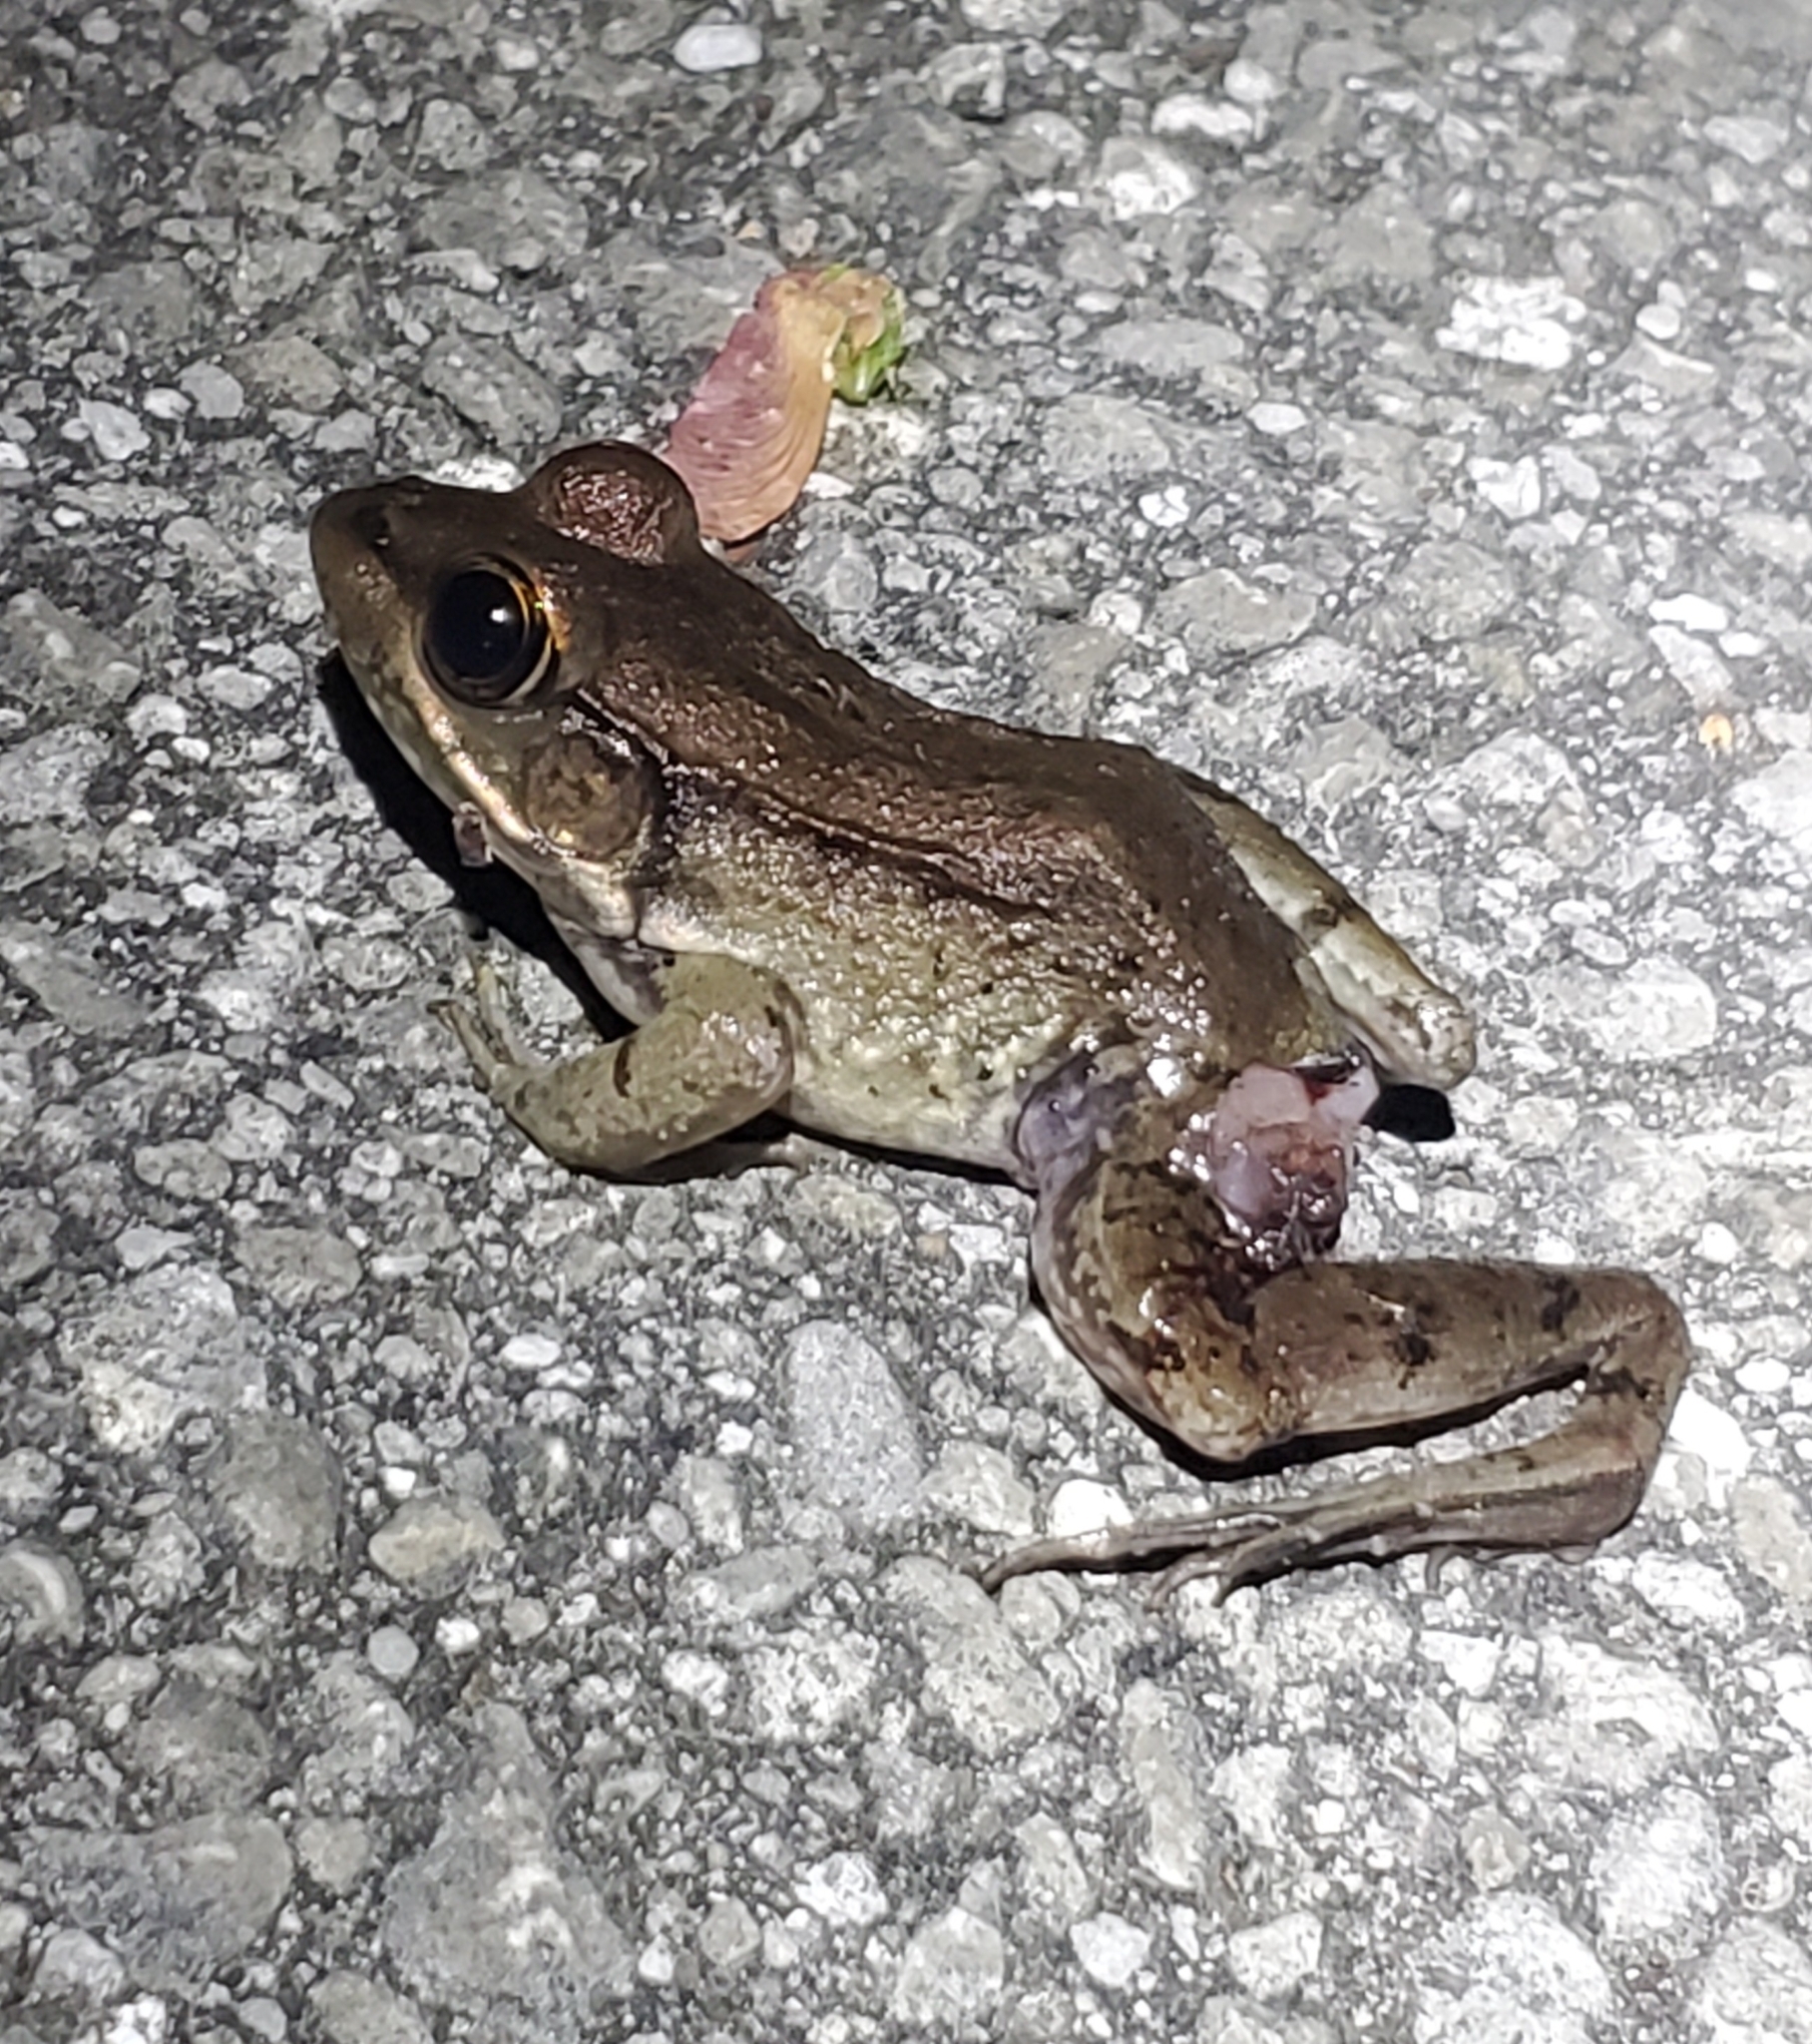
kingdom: Animalia
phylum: Chordata
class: Amphibia
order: Anura
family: Ranidae
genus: Lithobates
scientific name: Lithobates clamitans
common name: Green frog
